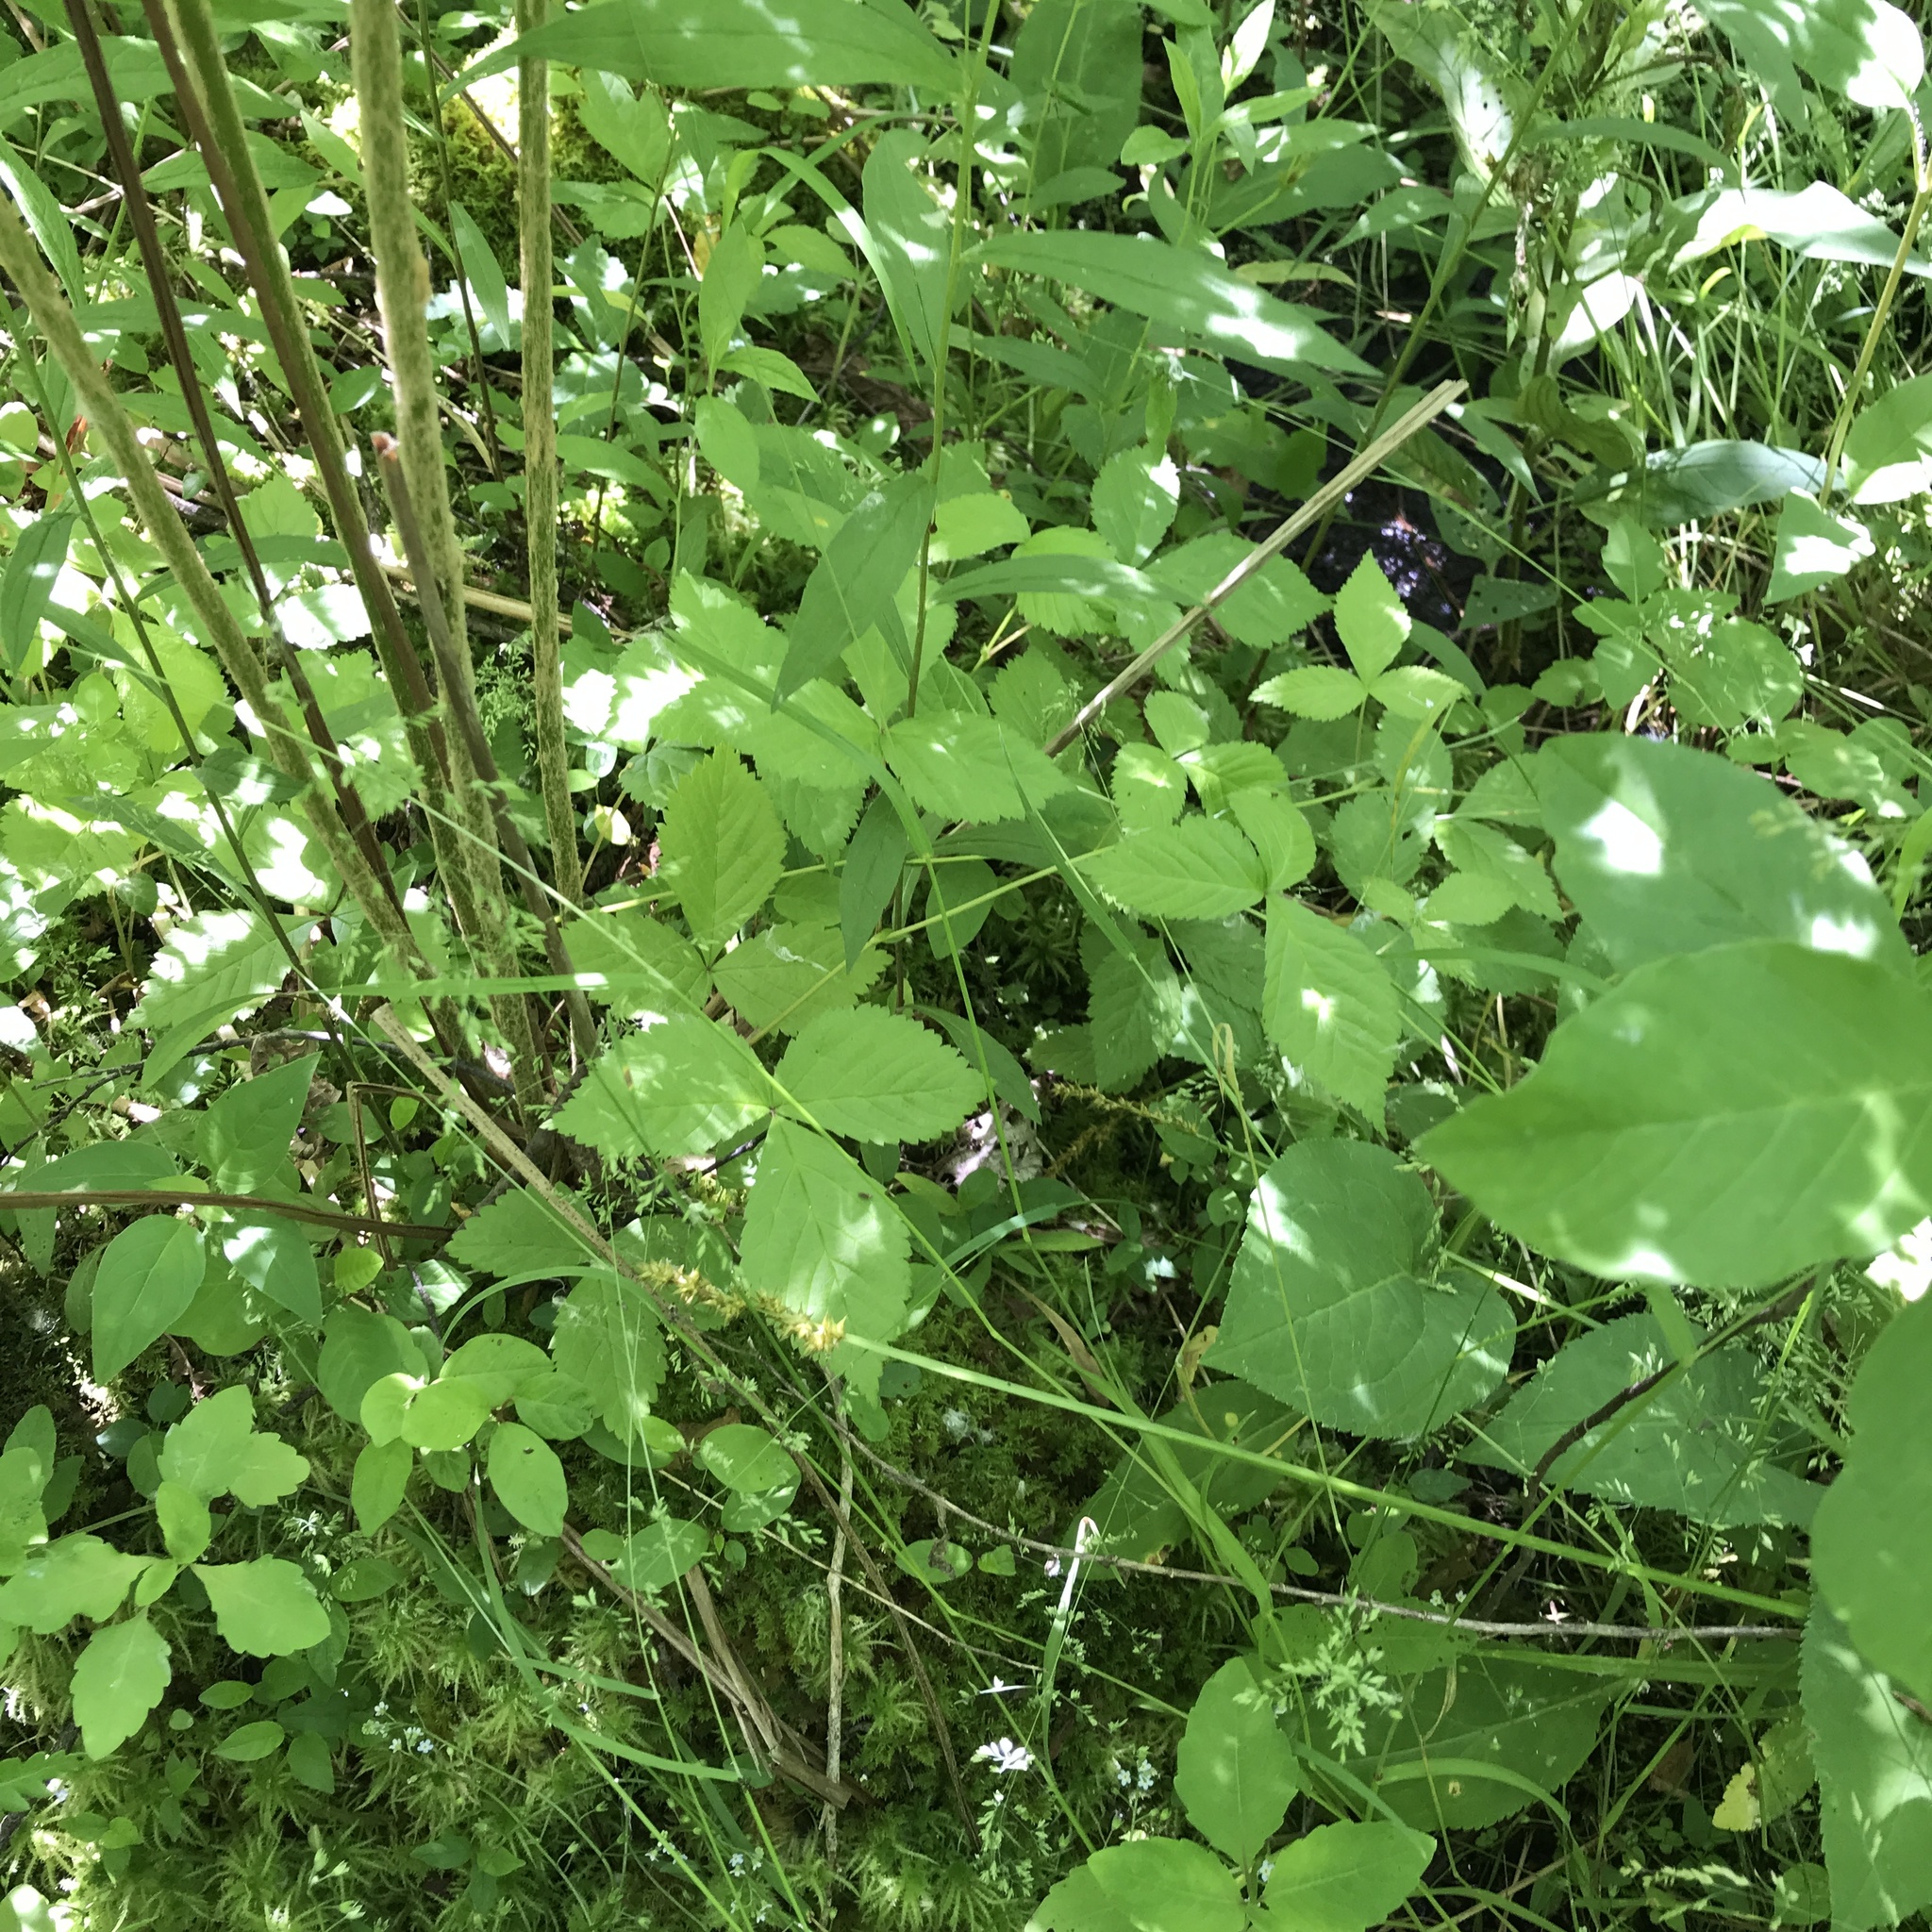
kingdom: Plantae
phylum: Tracheophyta
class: Magnoliopsida
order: Rosales
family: Rosaceae
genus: Rubus
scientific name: Rubus pubescens
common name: Dwarf raspberry
